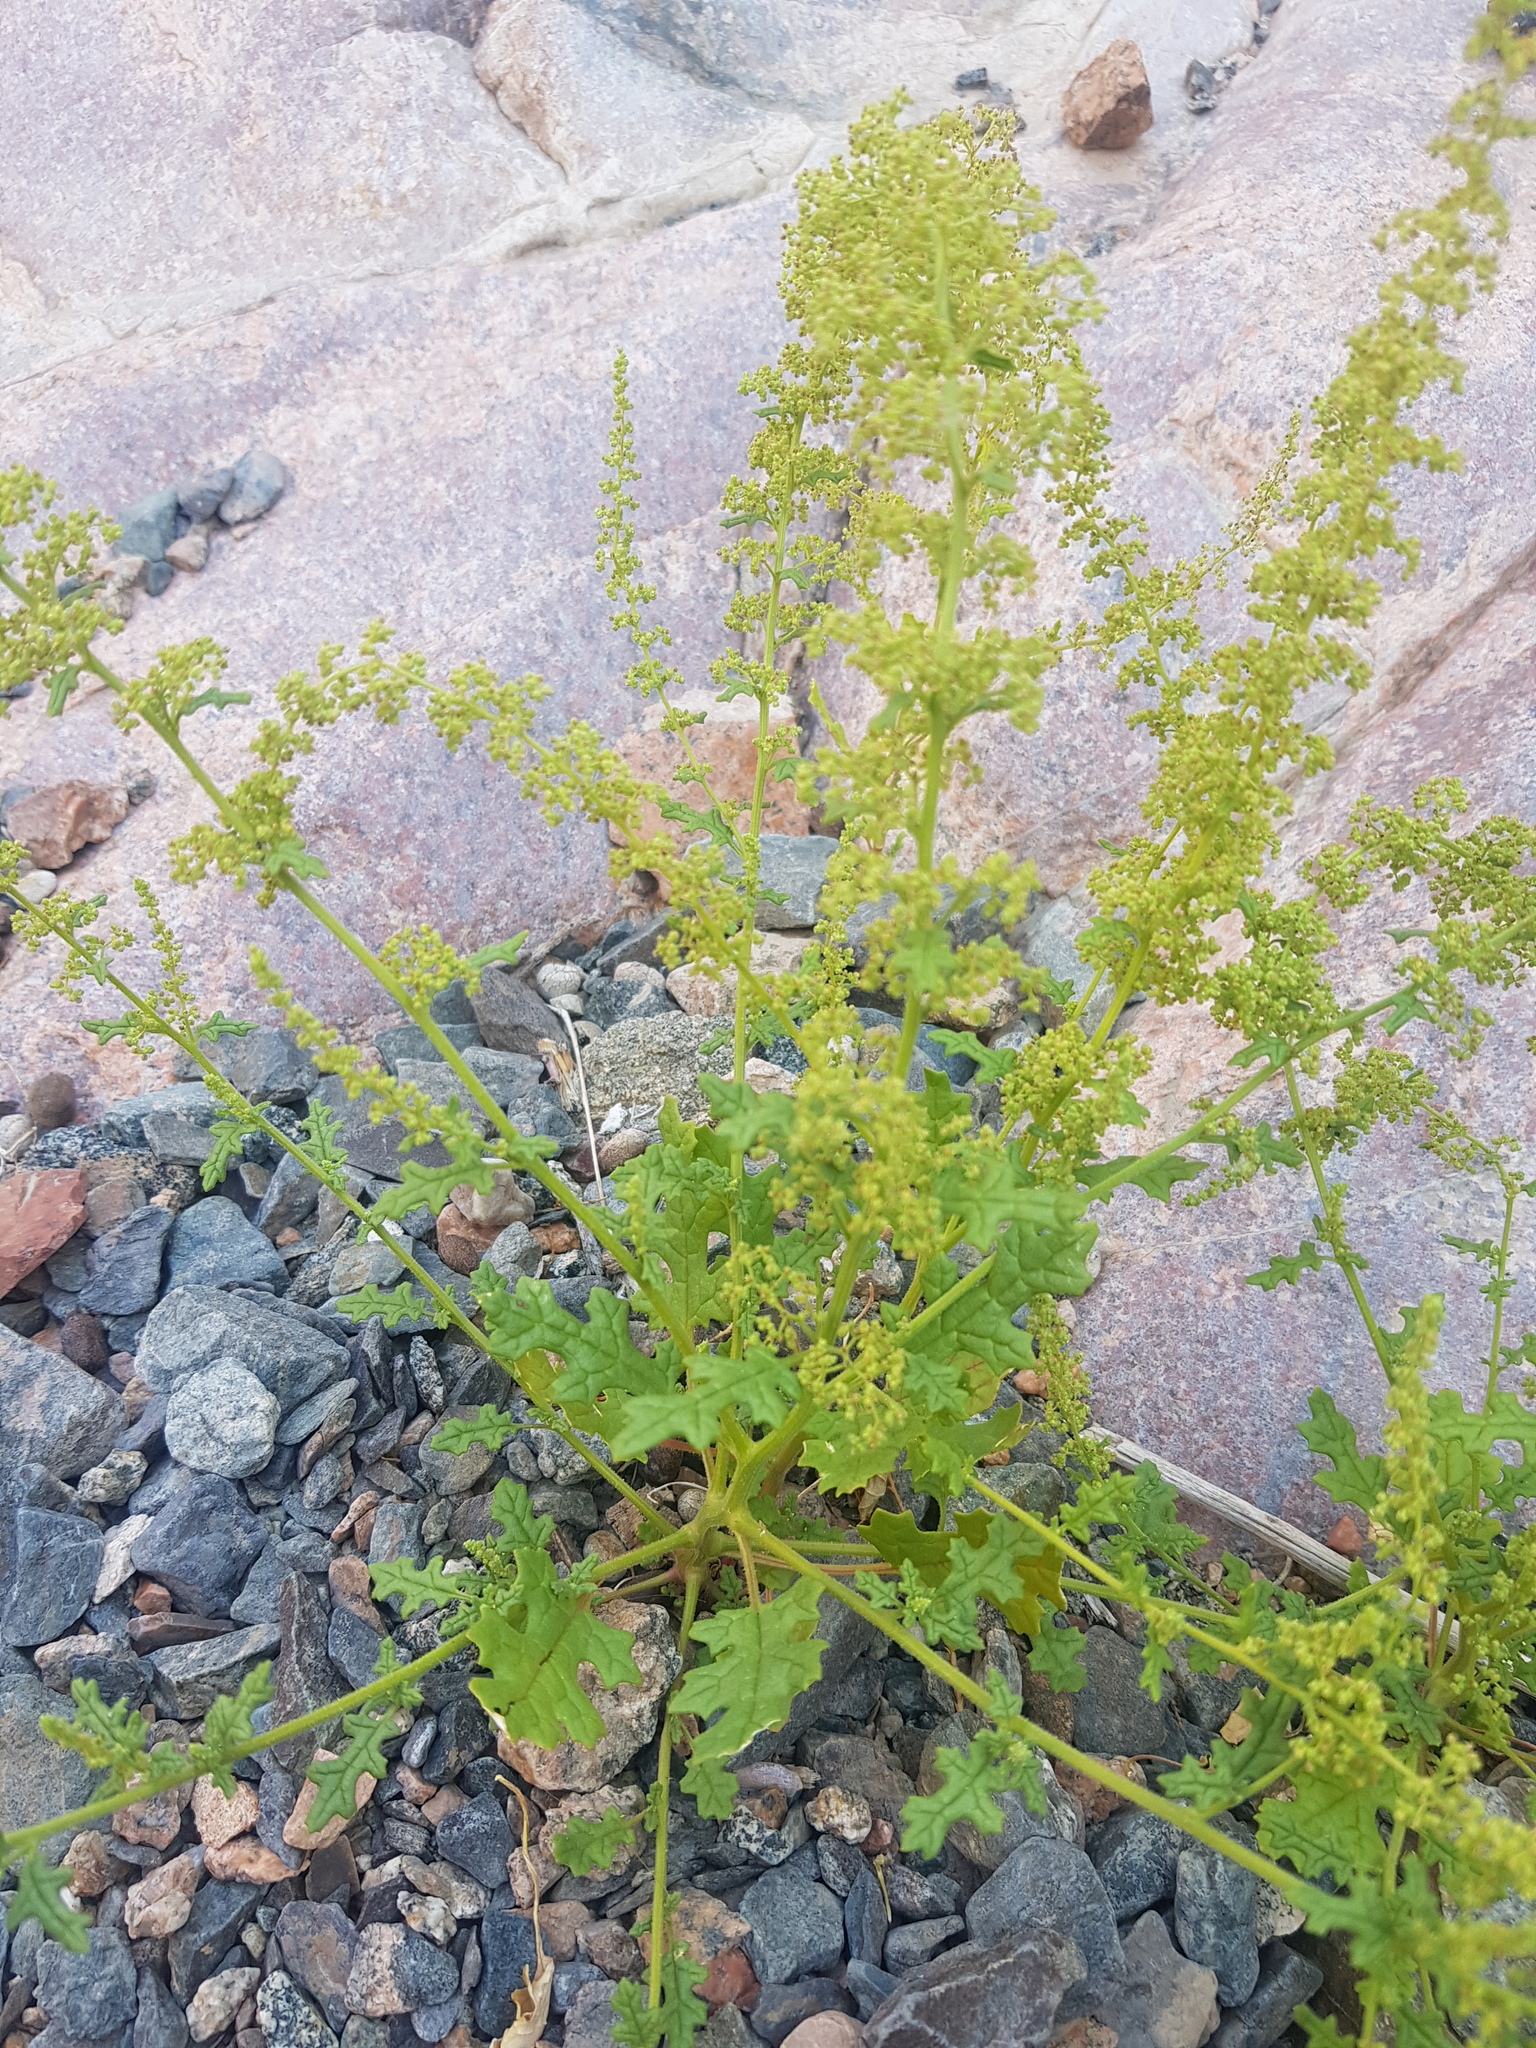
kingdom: Plantae
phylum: Tracheophyta
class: Magnoliopsida
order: Caryophyllales
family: Amaranthaceae
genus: Dysphania
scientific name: Dysphania botrys
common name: Feather-geranium
